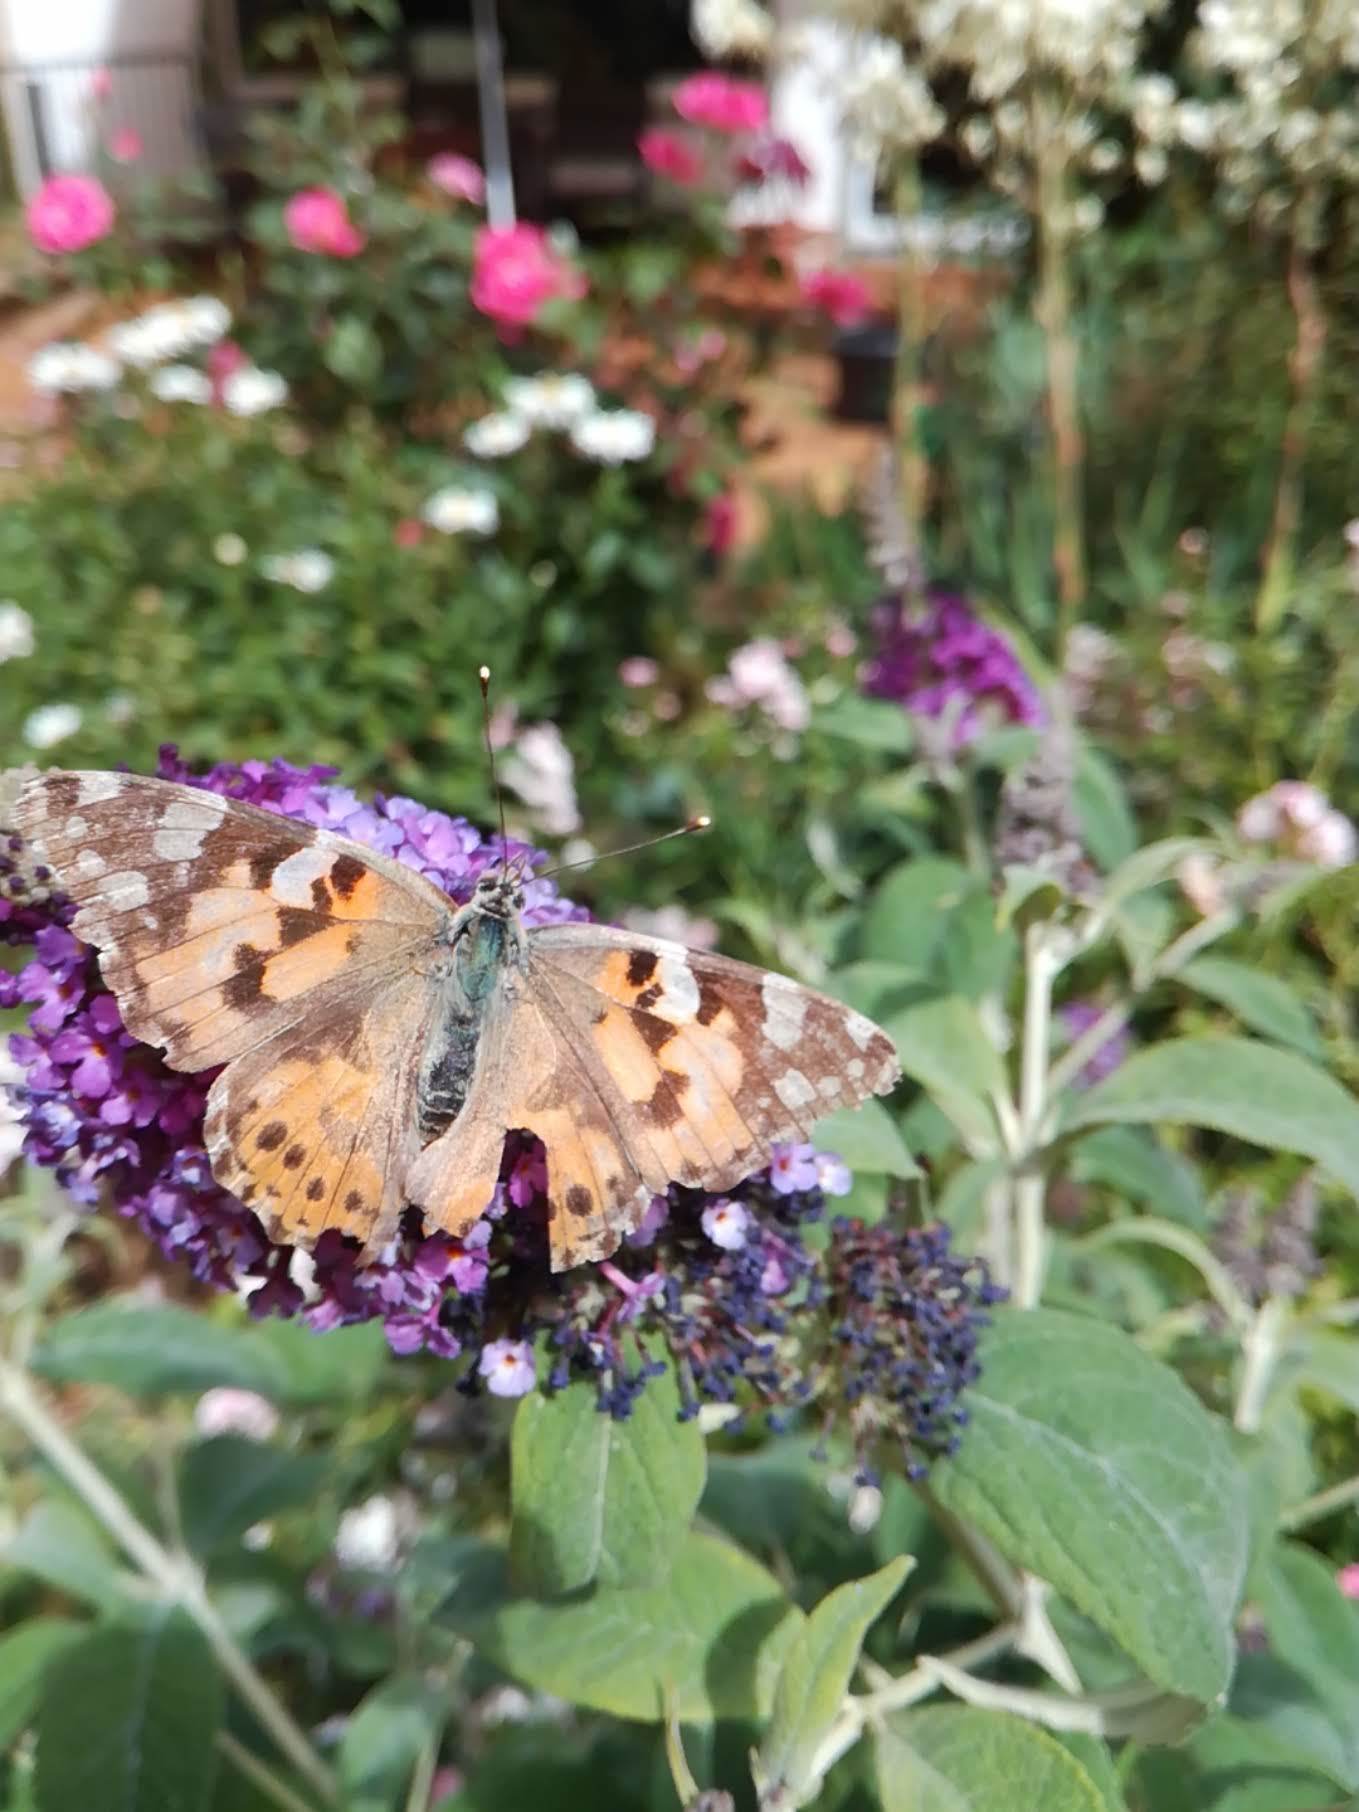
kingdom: Animalia
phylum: Arthropoda
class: Insecta
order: Lepidoptera
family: Nymphalidae
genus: Vanessa
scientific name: Vanessa cardui
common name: Painted lady
